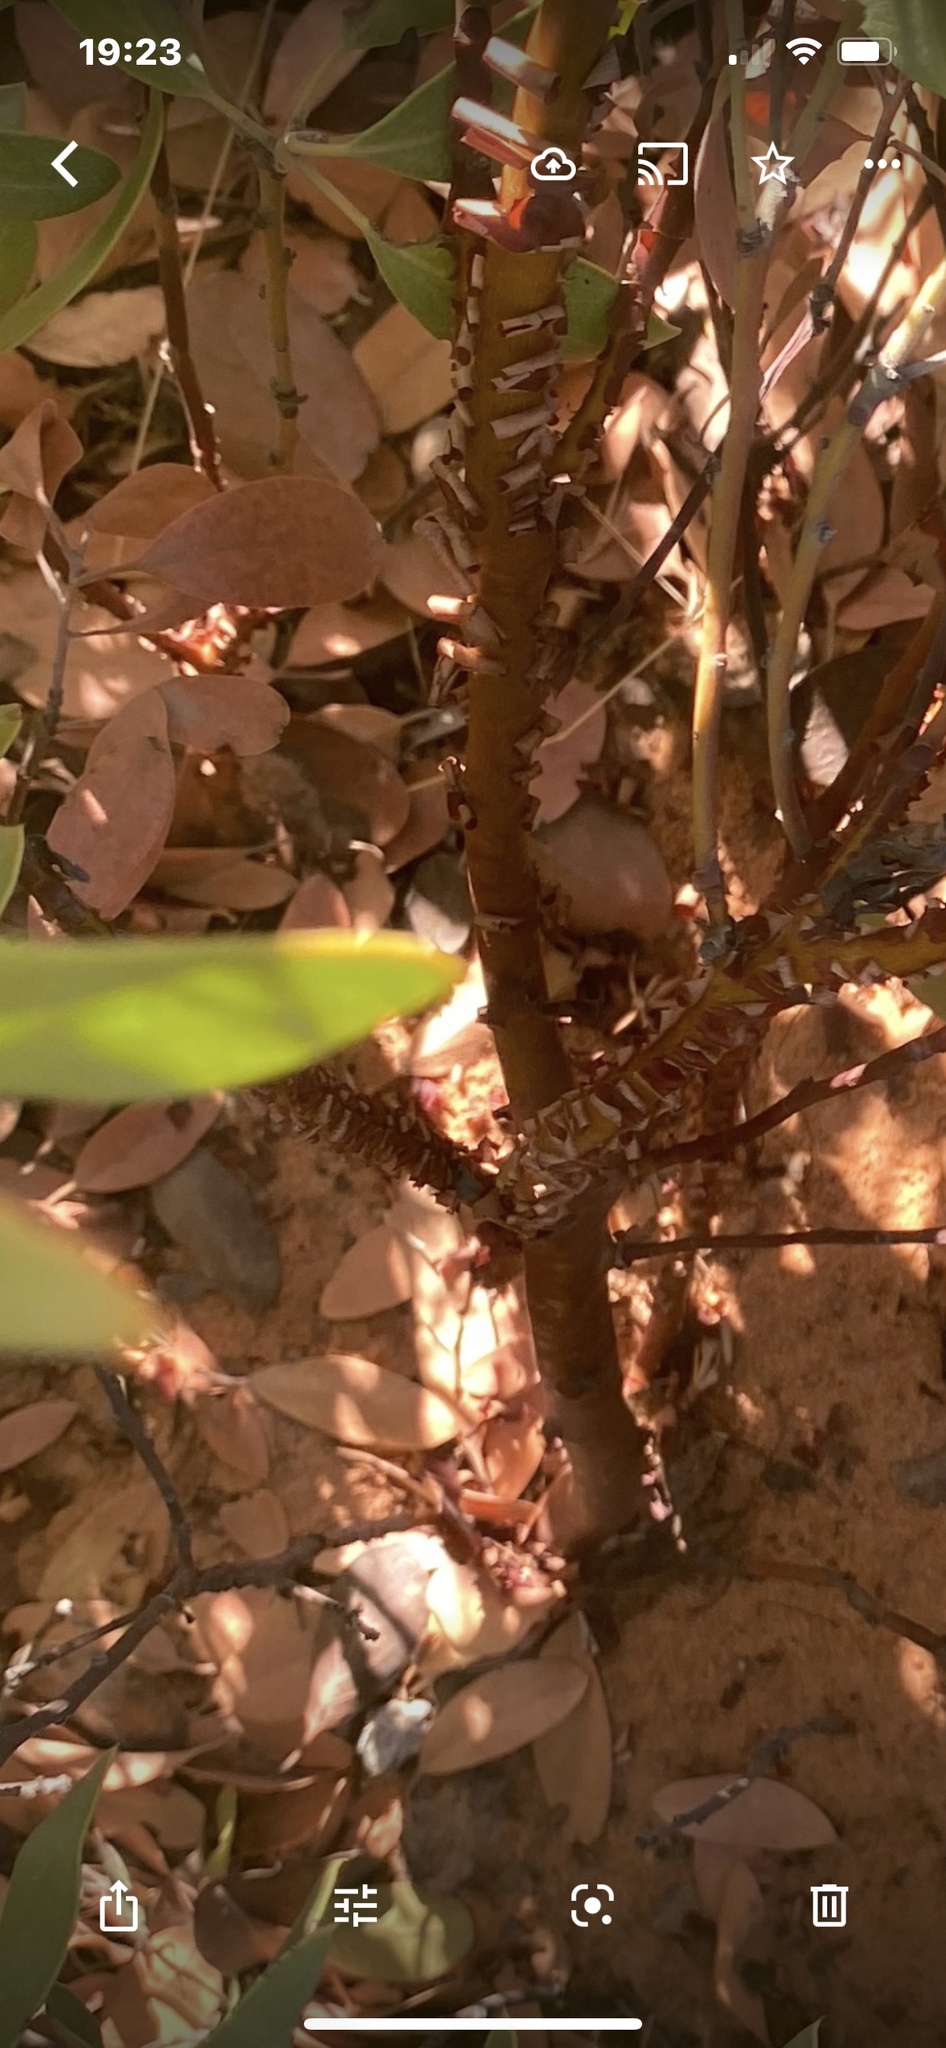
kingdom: Plantae
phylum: Tracheophyta
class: Magnoliopsida
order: Ericales
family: Ericaceae
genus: Arctostaphylos
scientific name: Arctostaphylos pungens
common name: Mexican manzanita
